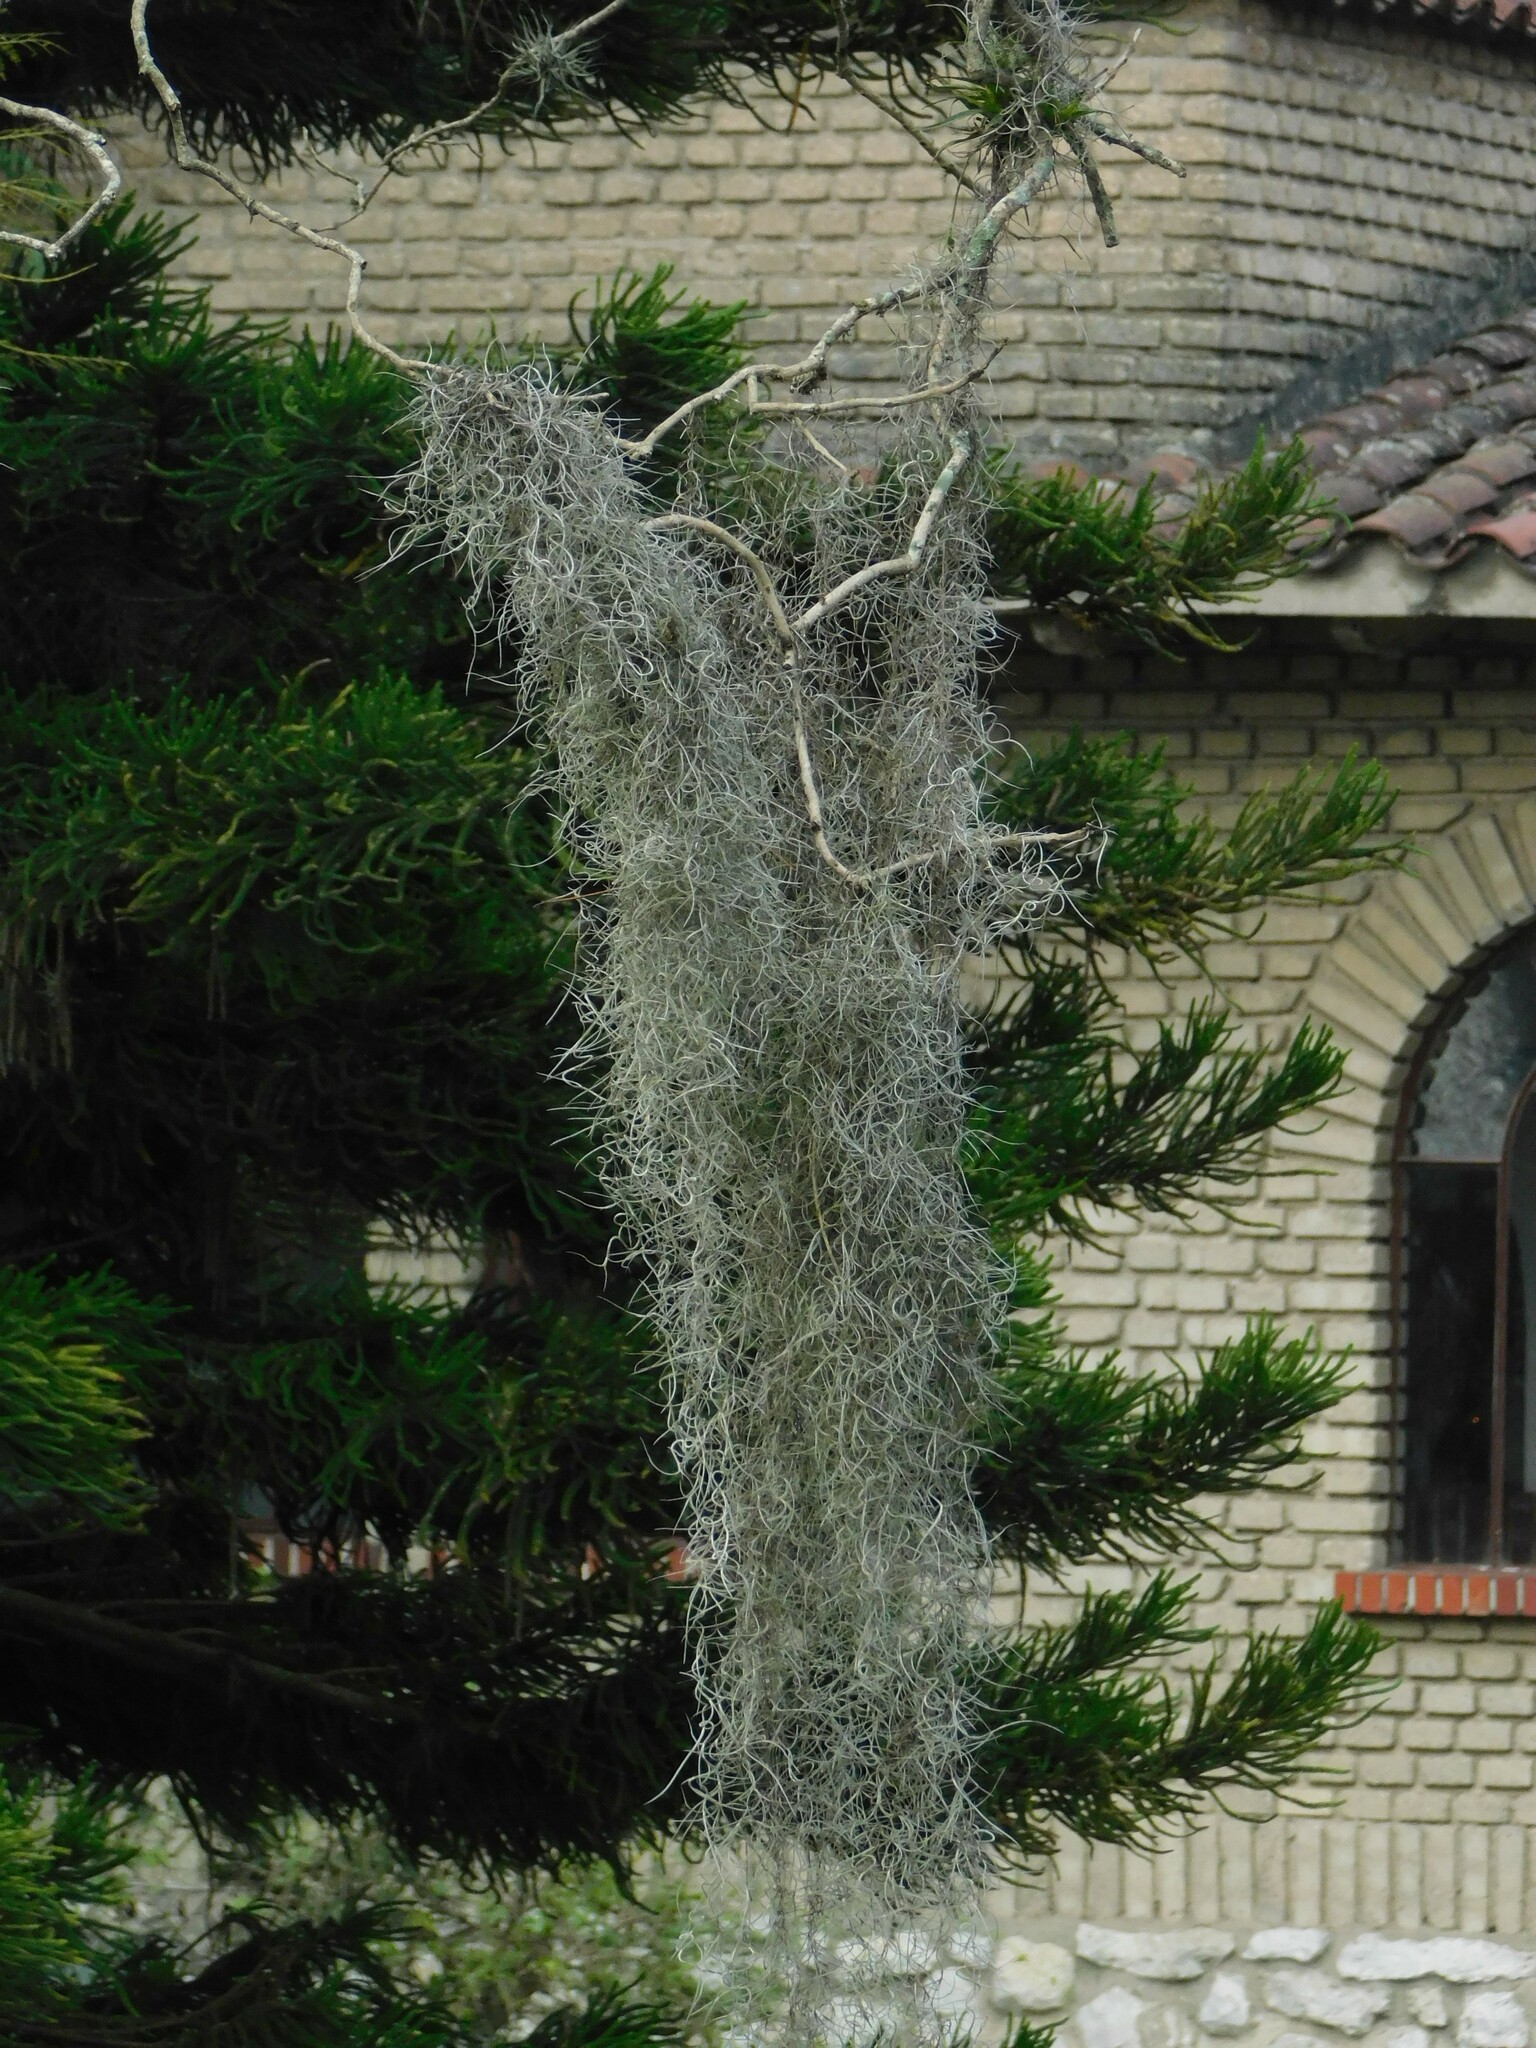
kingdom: Plantae
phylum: Tracheophyta
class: Liliopsida
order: Poales
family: Bromeliaceae
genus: Tillandsia
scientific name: Tillandsia usneoides
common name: Spanish moss
